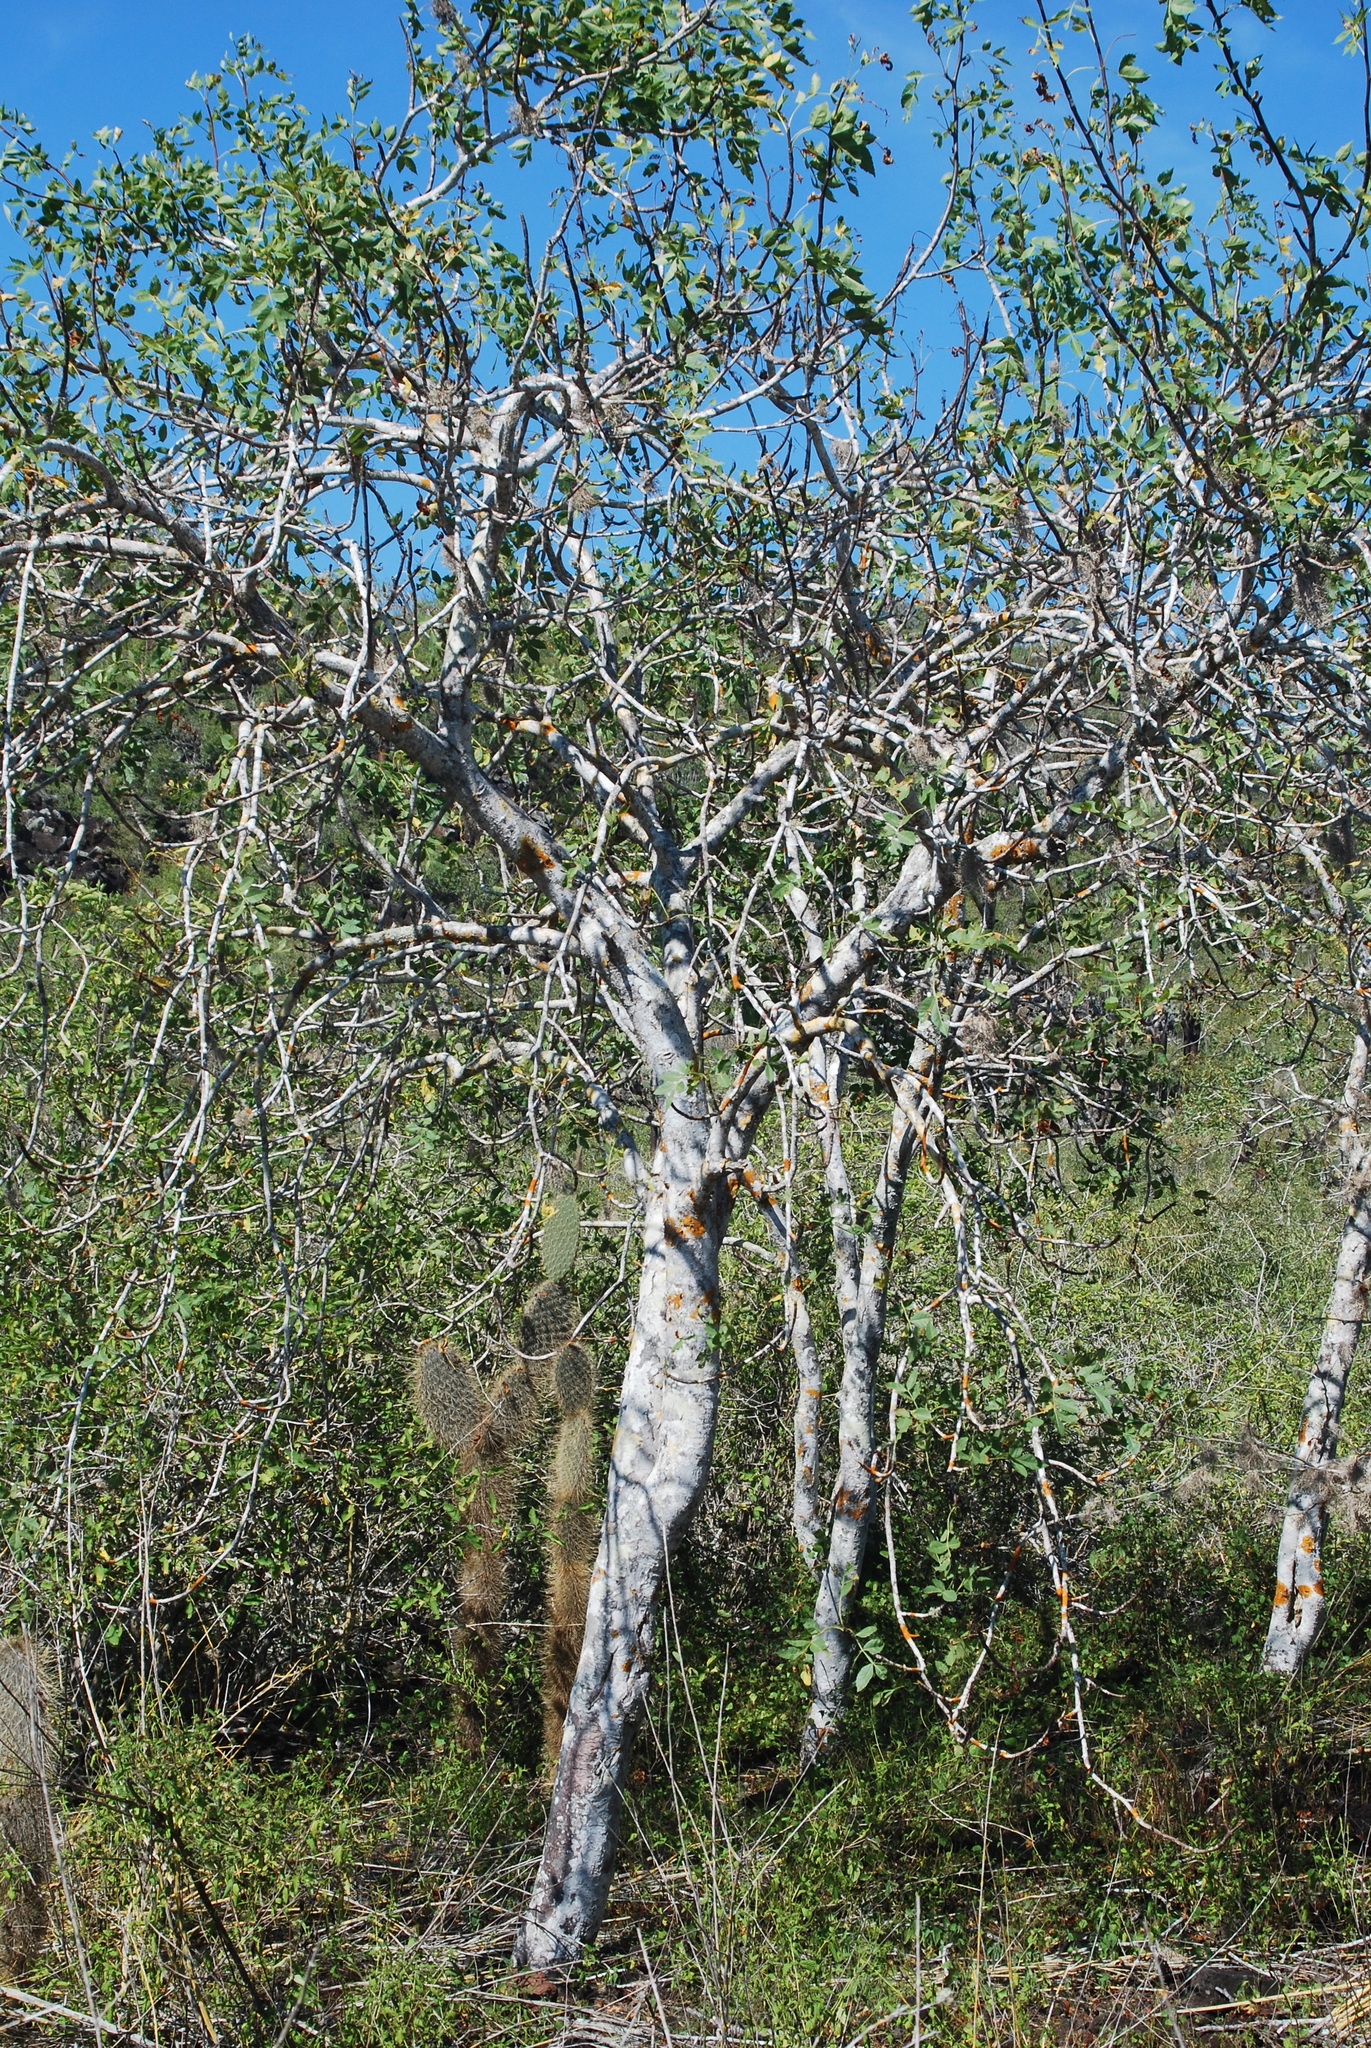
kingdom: Plantae
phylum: Tracheophyta
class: Magnoliopsida
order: Sapindales
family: Burseraceae
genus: Bursera
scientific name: Bursera graveolens
